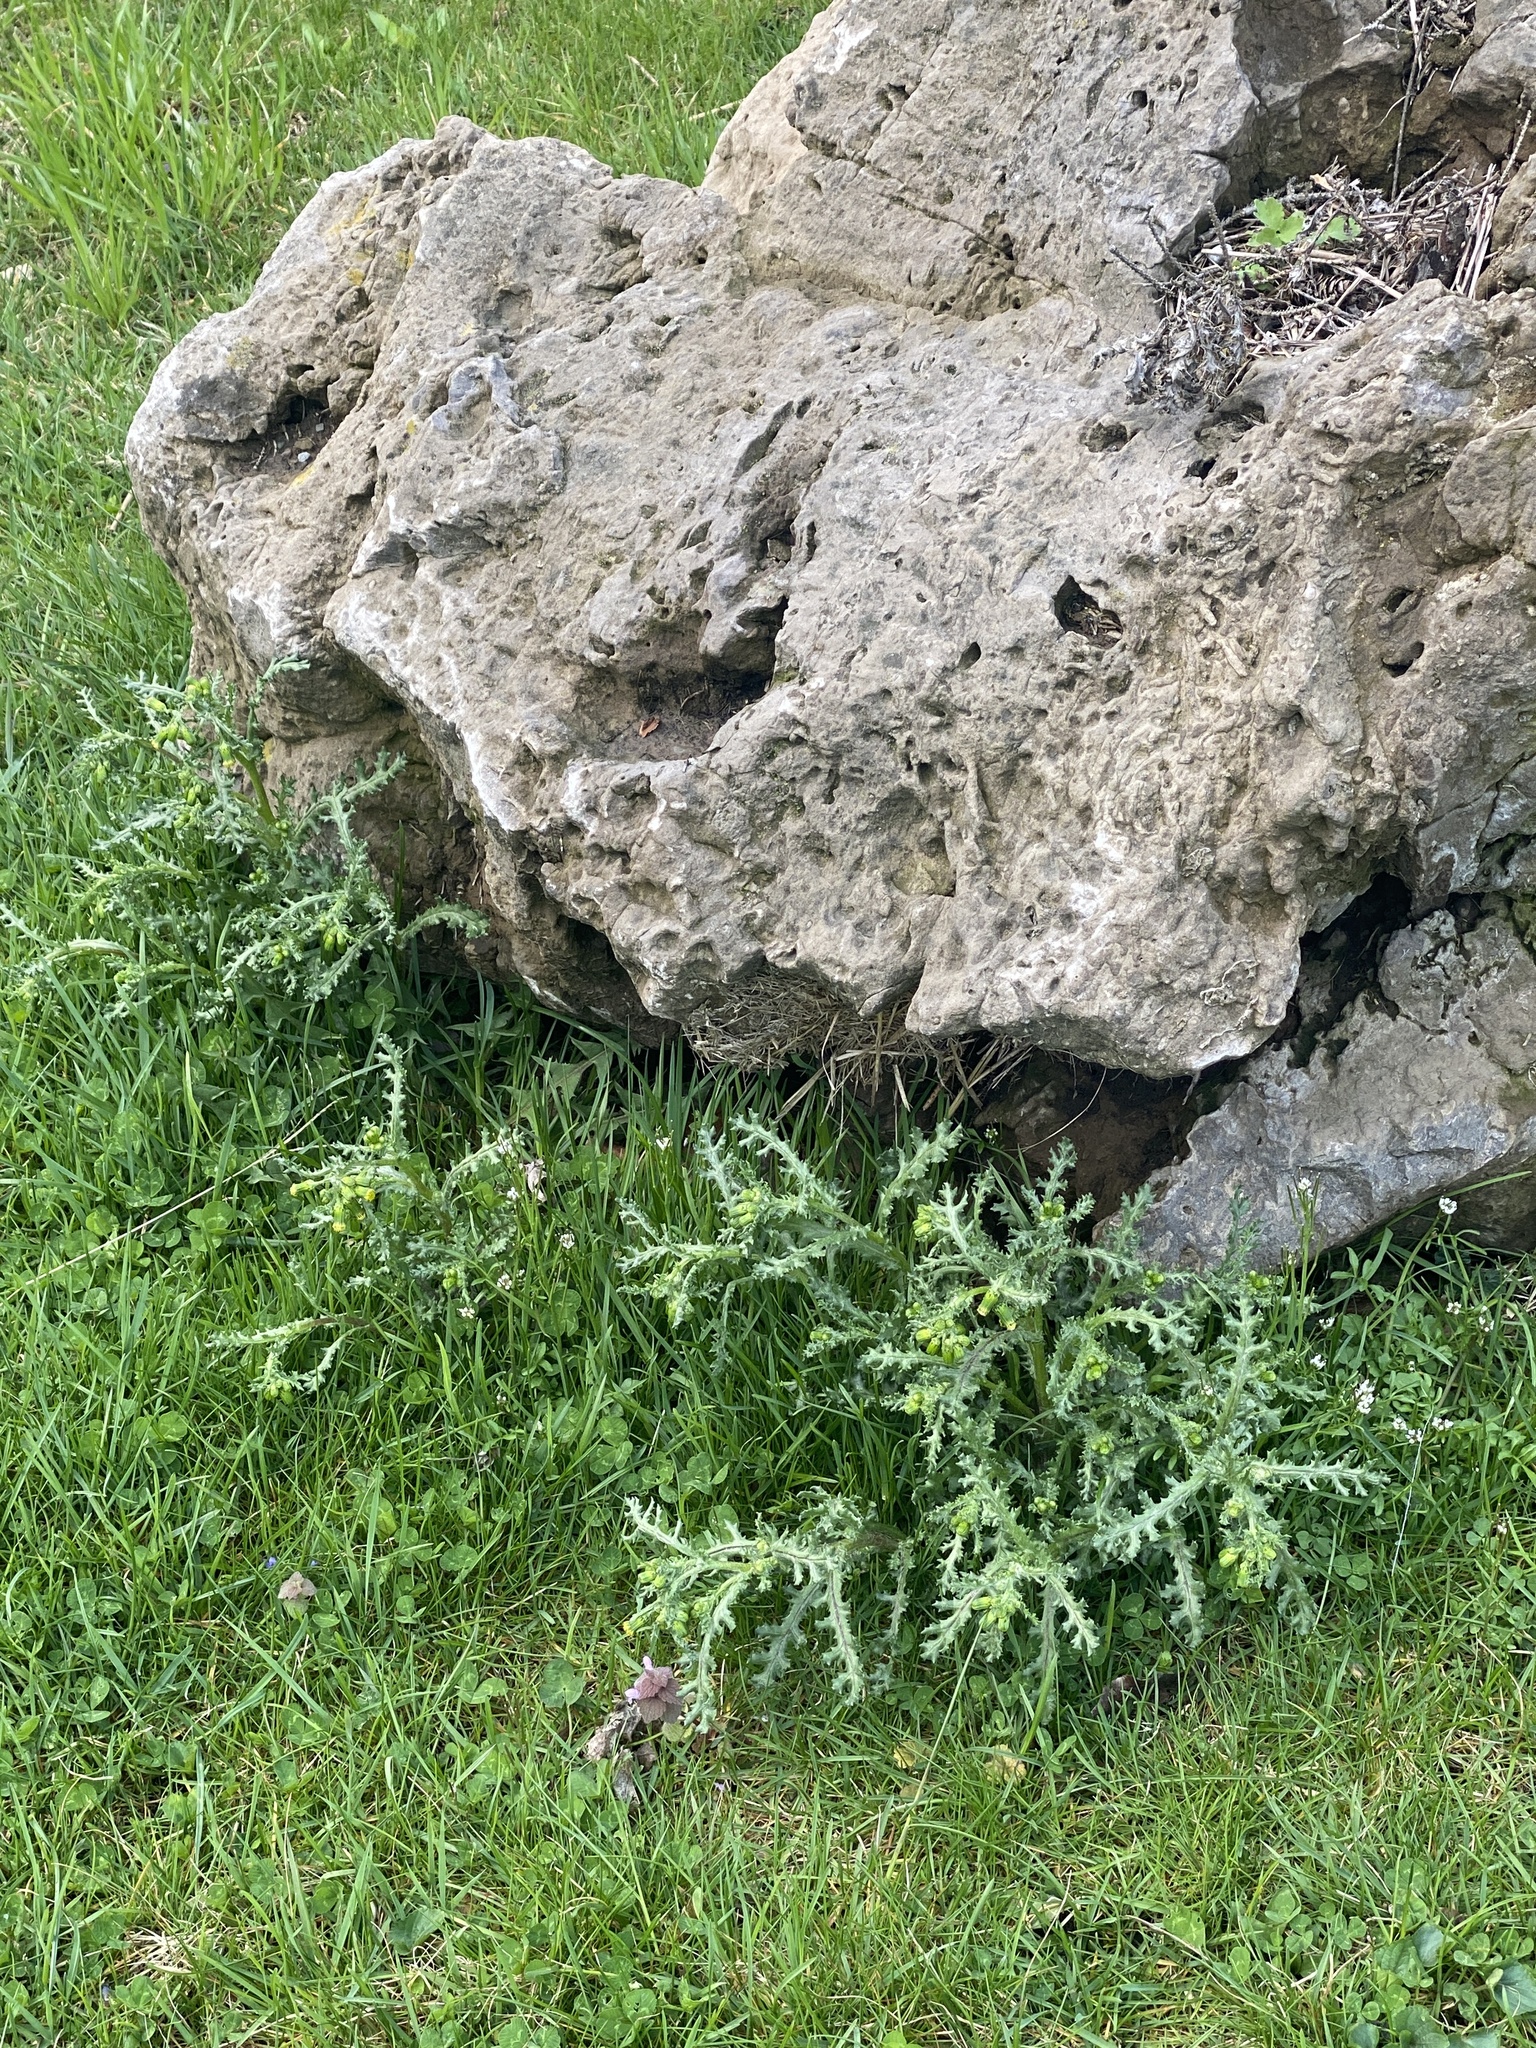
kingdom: Plantae
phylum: Tracheophyta
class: Magnoliopsida
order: Asterales
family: Asteraceae
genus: Senecio
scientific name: Senecio vulgaris
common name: Old-man-in-the-spring
